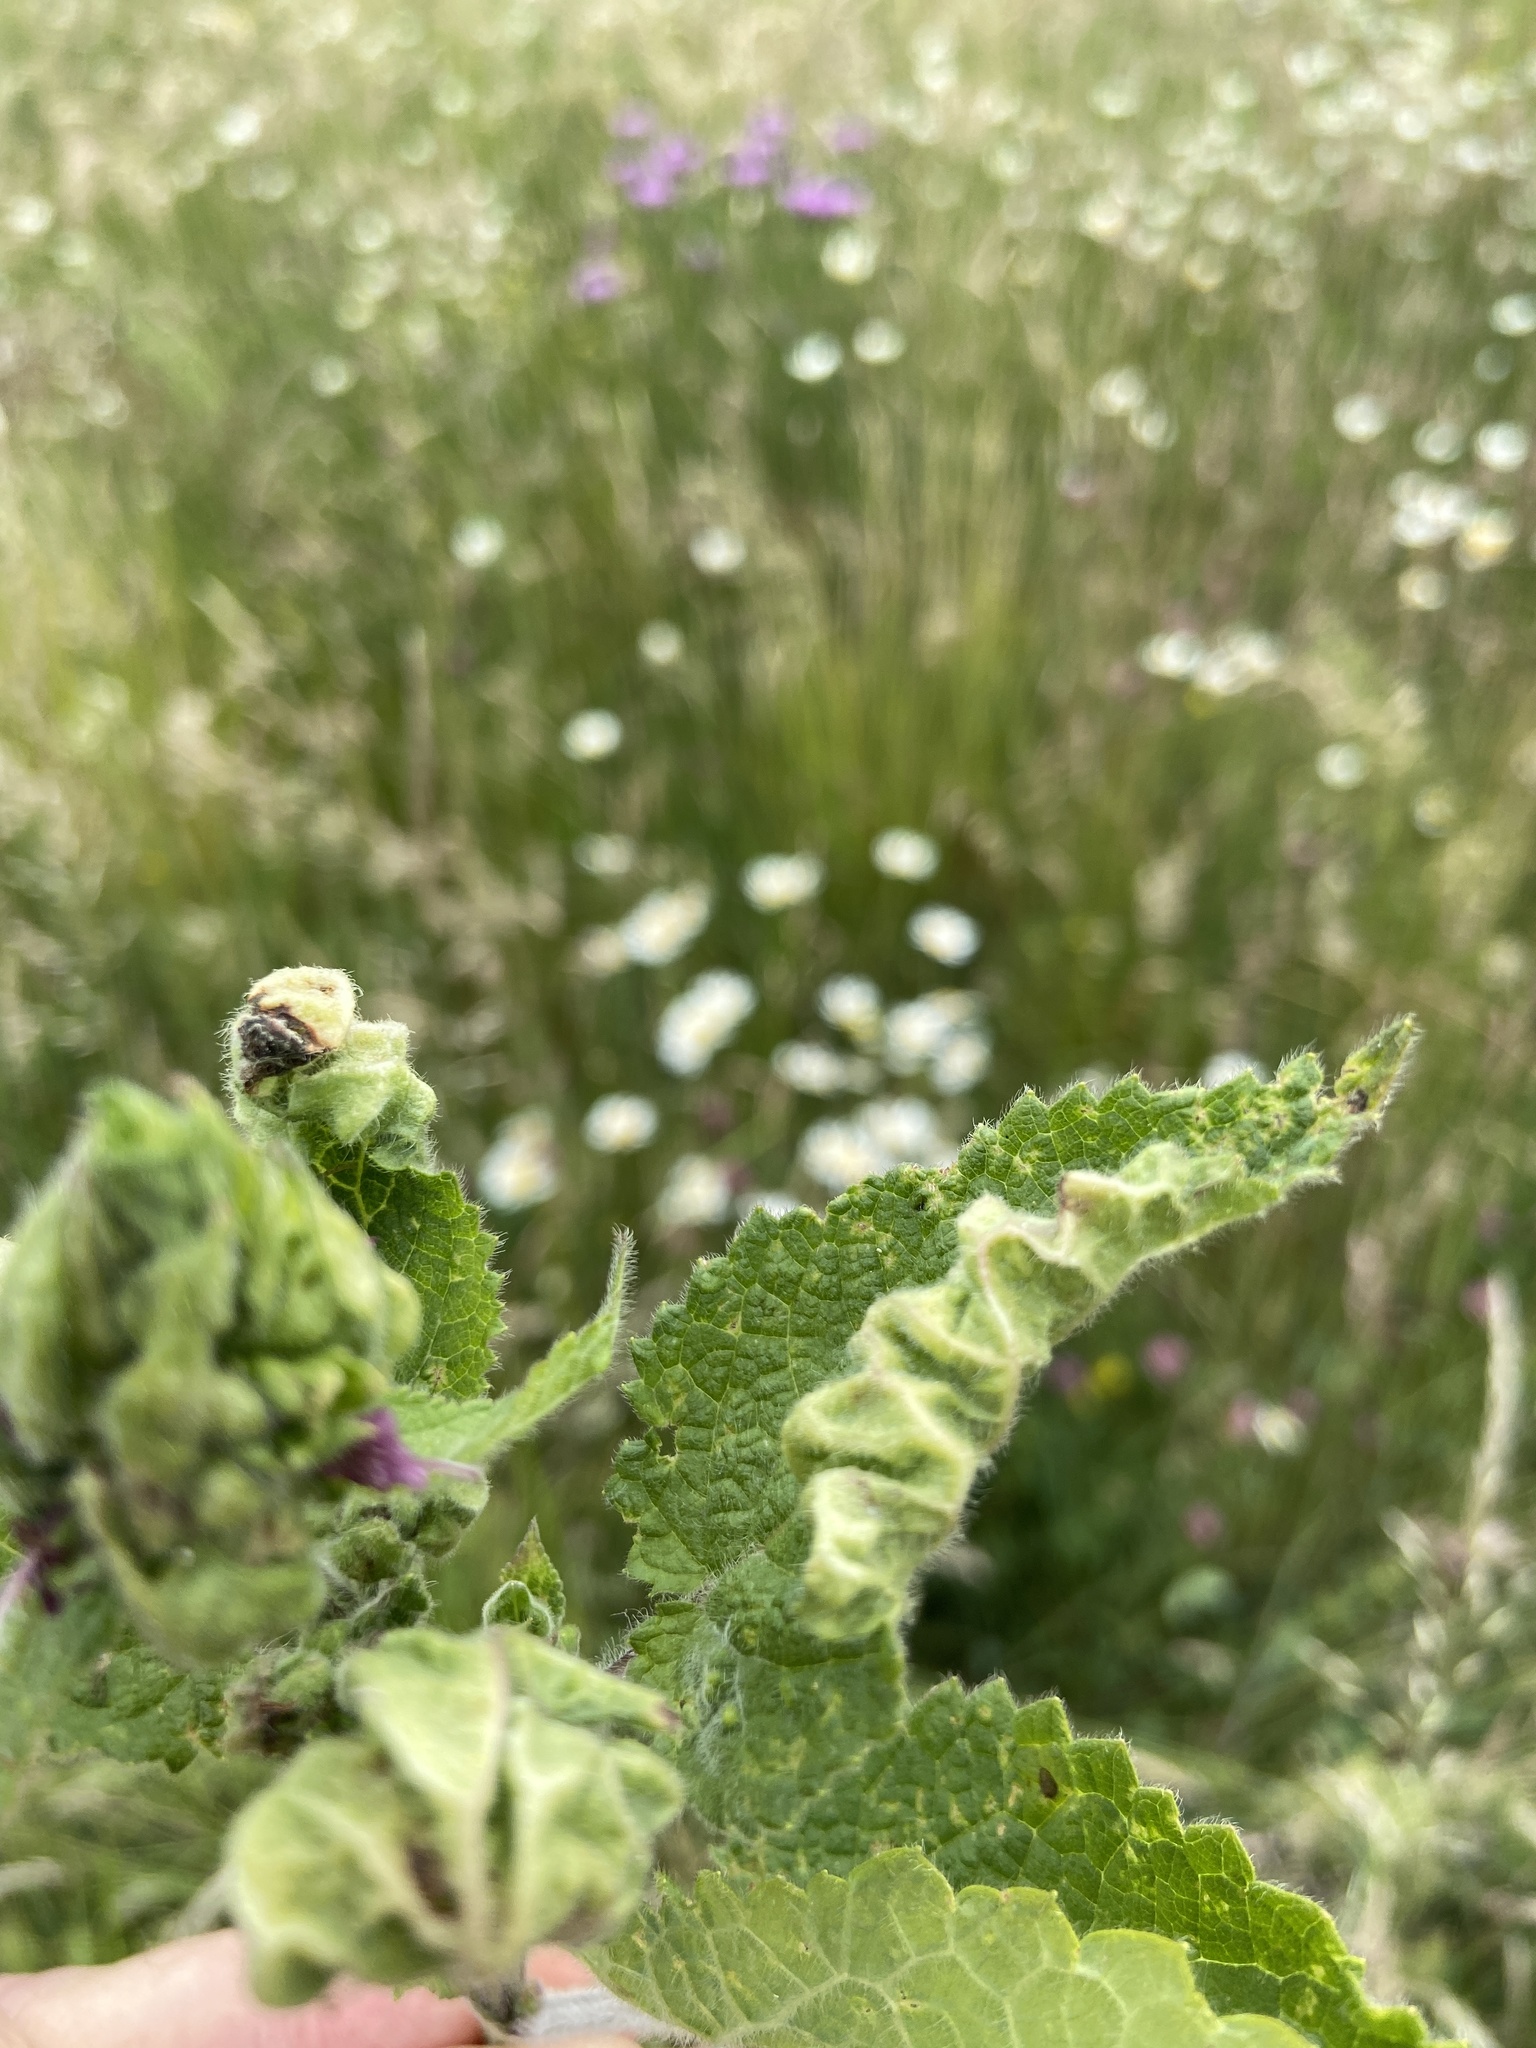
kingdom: Animalia
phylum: Arthropoda
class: Insecta
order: Diptera
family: Cecidomyiidae
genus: Wachtliella
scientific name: Wachtliella stachydis
